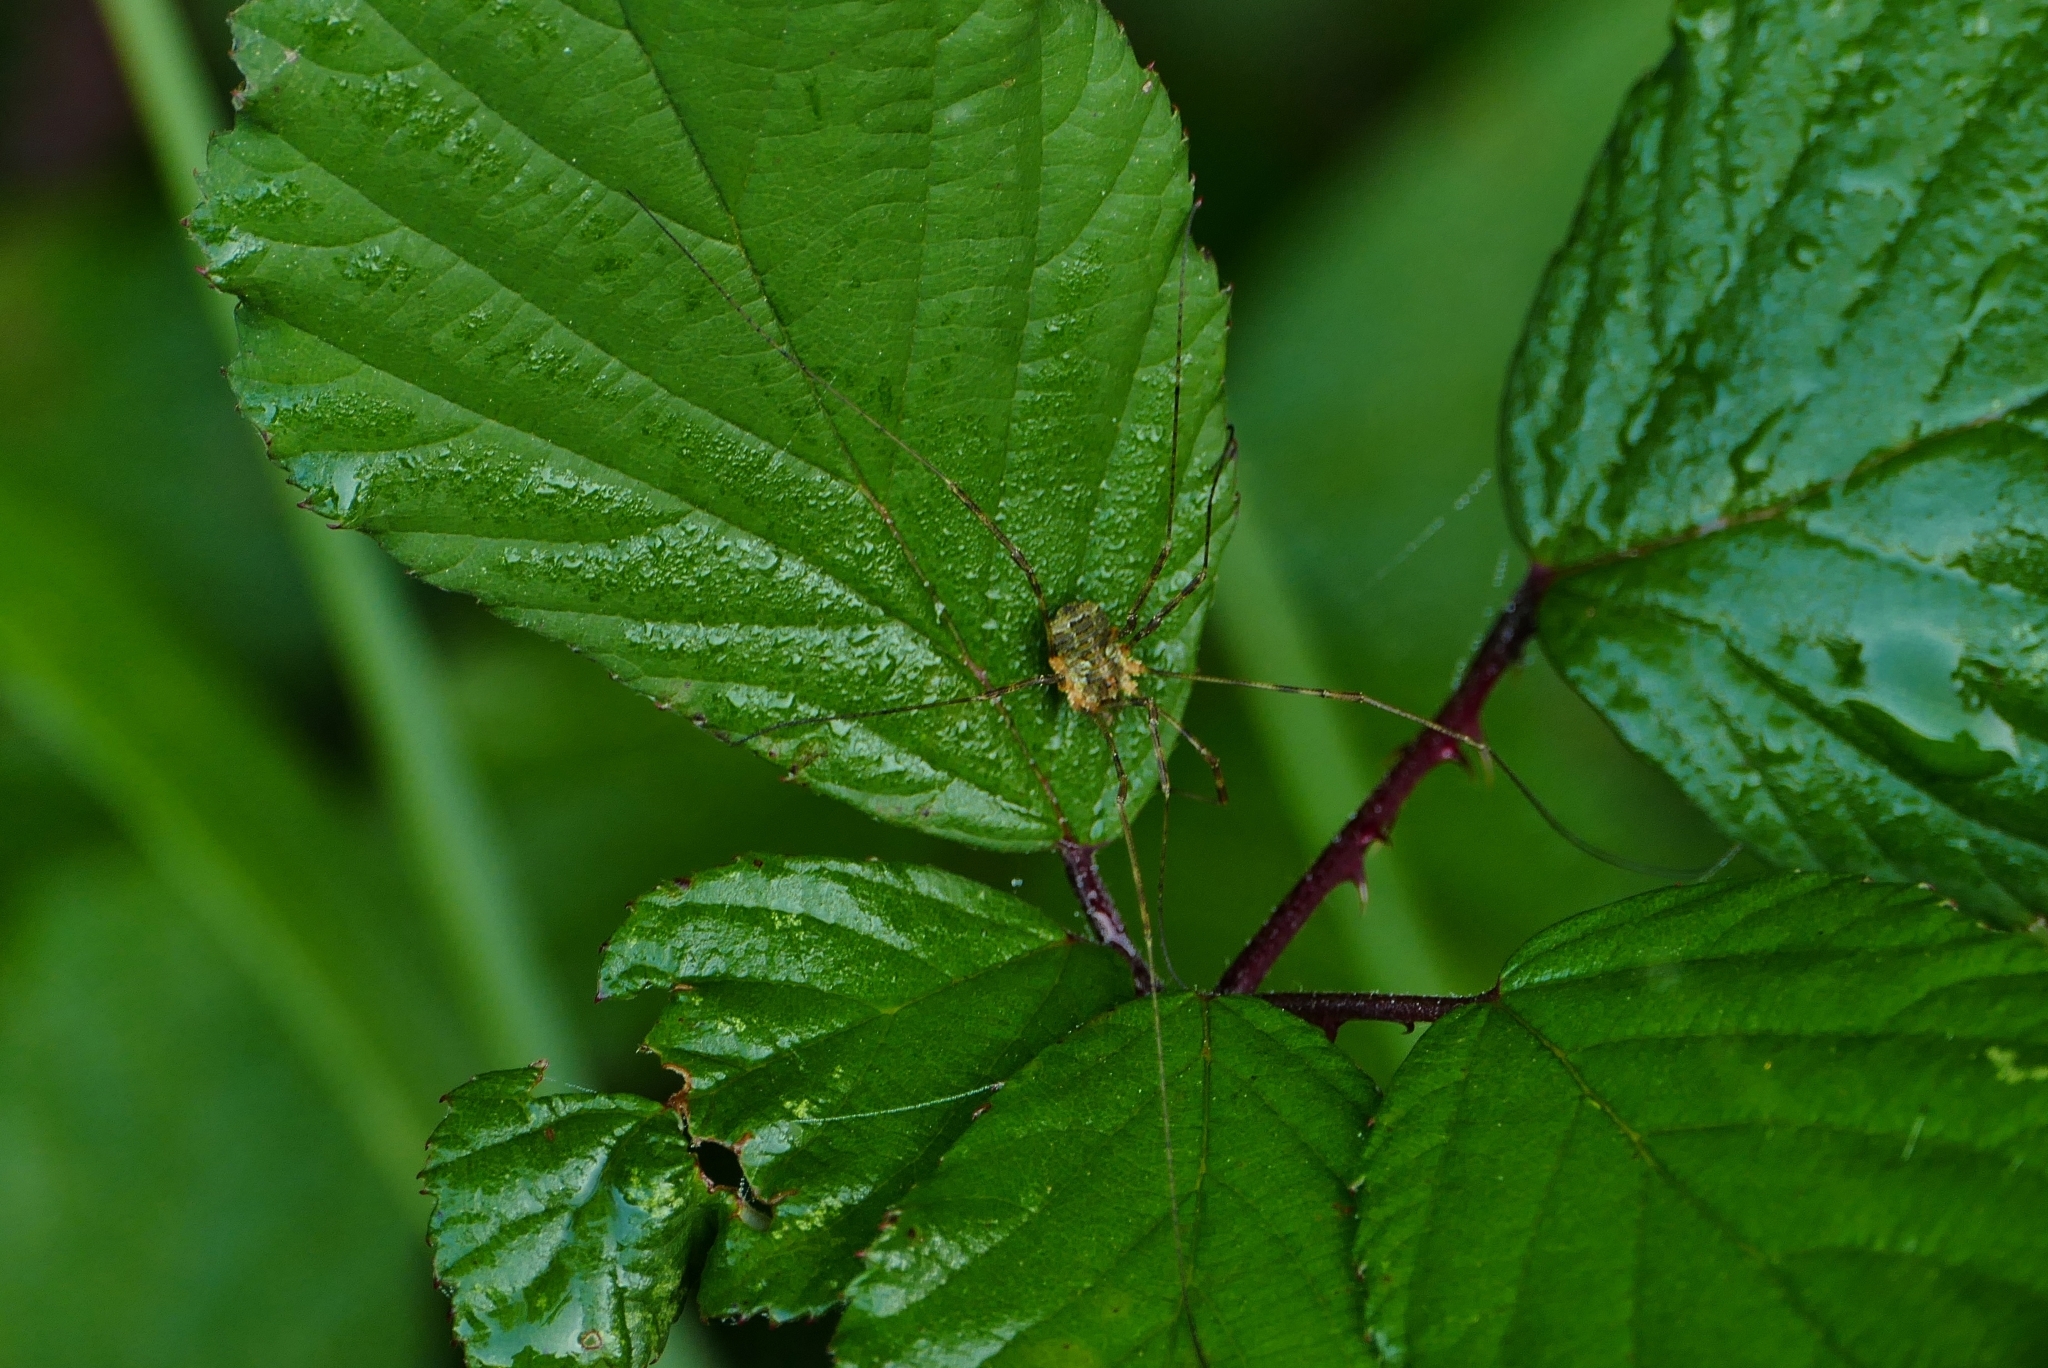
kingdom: Animalia
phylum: Arthropoda
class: Arachnida
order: Opiliones
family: Phalangiidae
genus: Lacinius
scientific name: Lacinius dentiger
